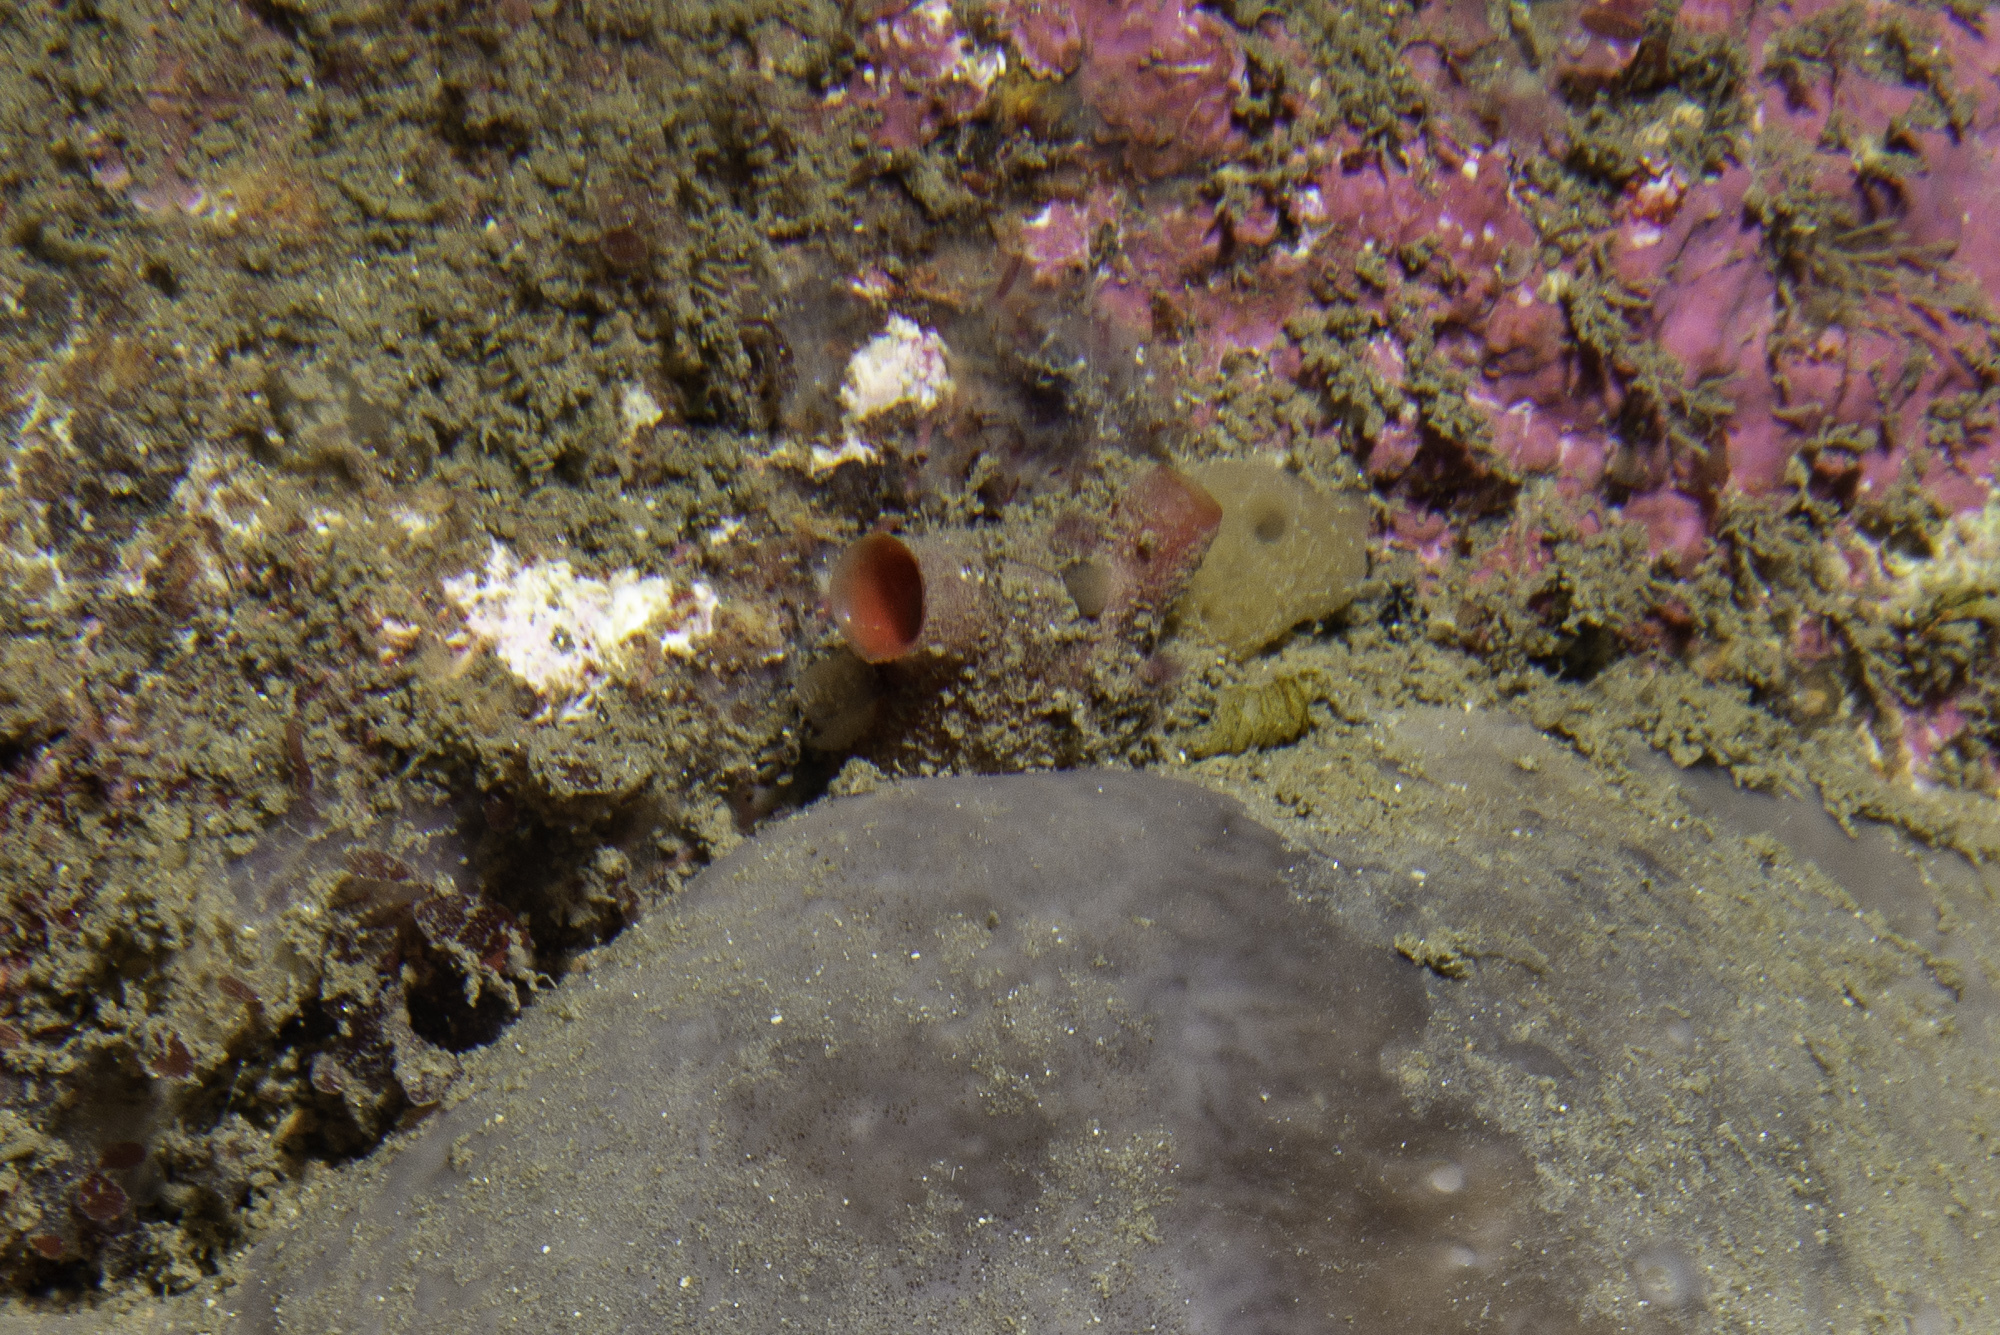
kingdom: Animalia
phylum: Chordata
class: Ascidiacea
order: Stolidobranchia
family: Styelidae
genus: Polycarpa
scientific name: Polycarpa errans
